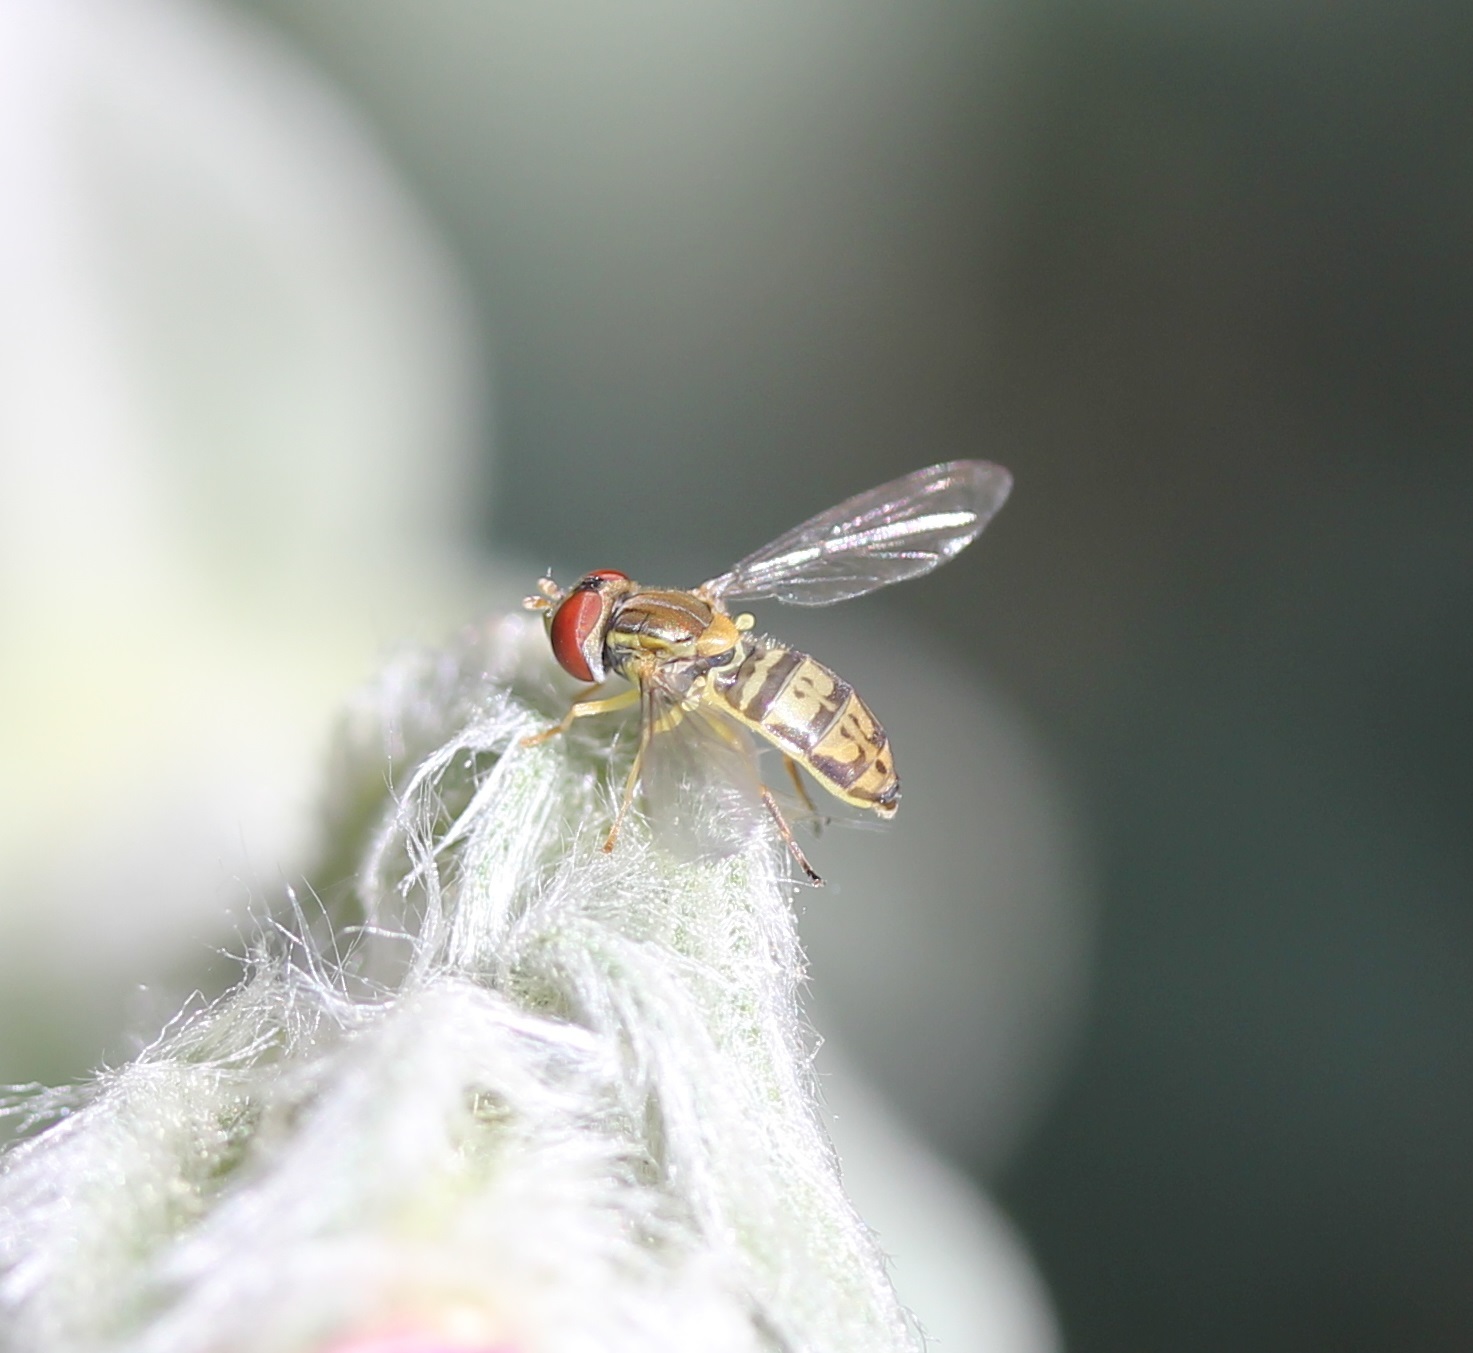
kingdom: Animalia
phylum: Arthropoda
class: Insecta
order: Diptera
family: Syrphidae
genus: Toxomerus
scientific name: Toxomerus marginatus
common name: Syrphid fly
